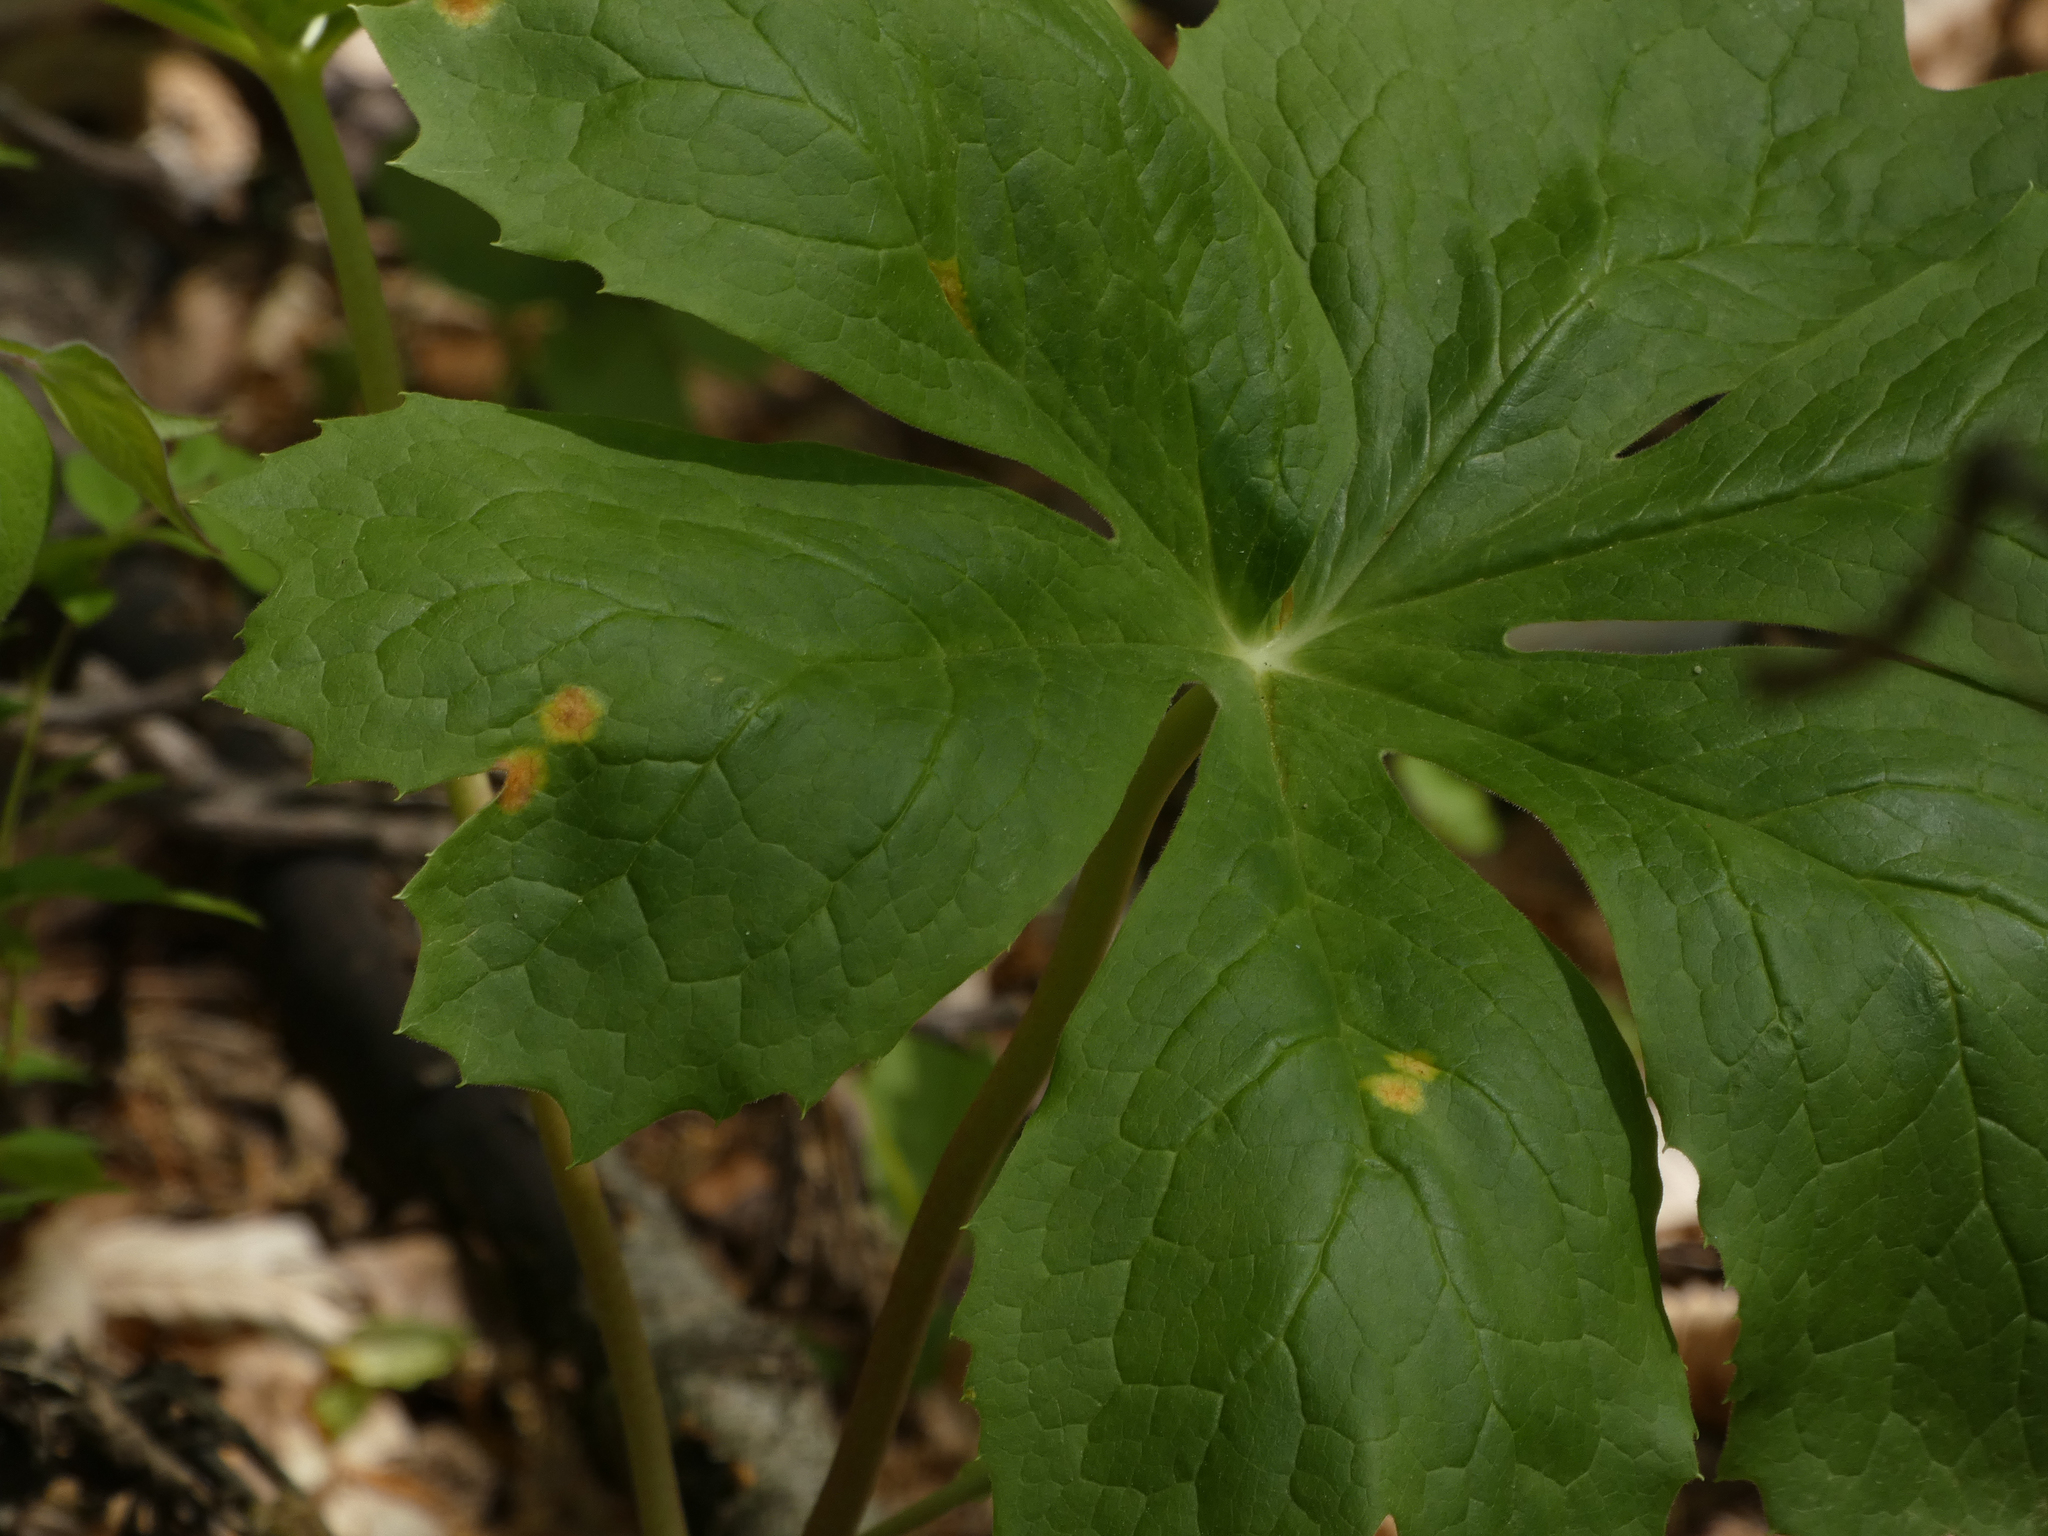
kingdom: Fungi
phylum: Basidiomycota
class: Pucciniomycetes
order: Pucciniales
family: Pucciniaceae
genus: Puccinia
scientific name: Puccinia podophylli
